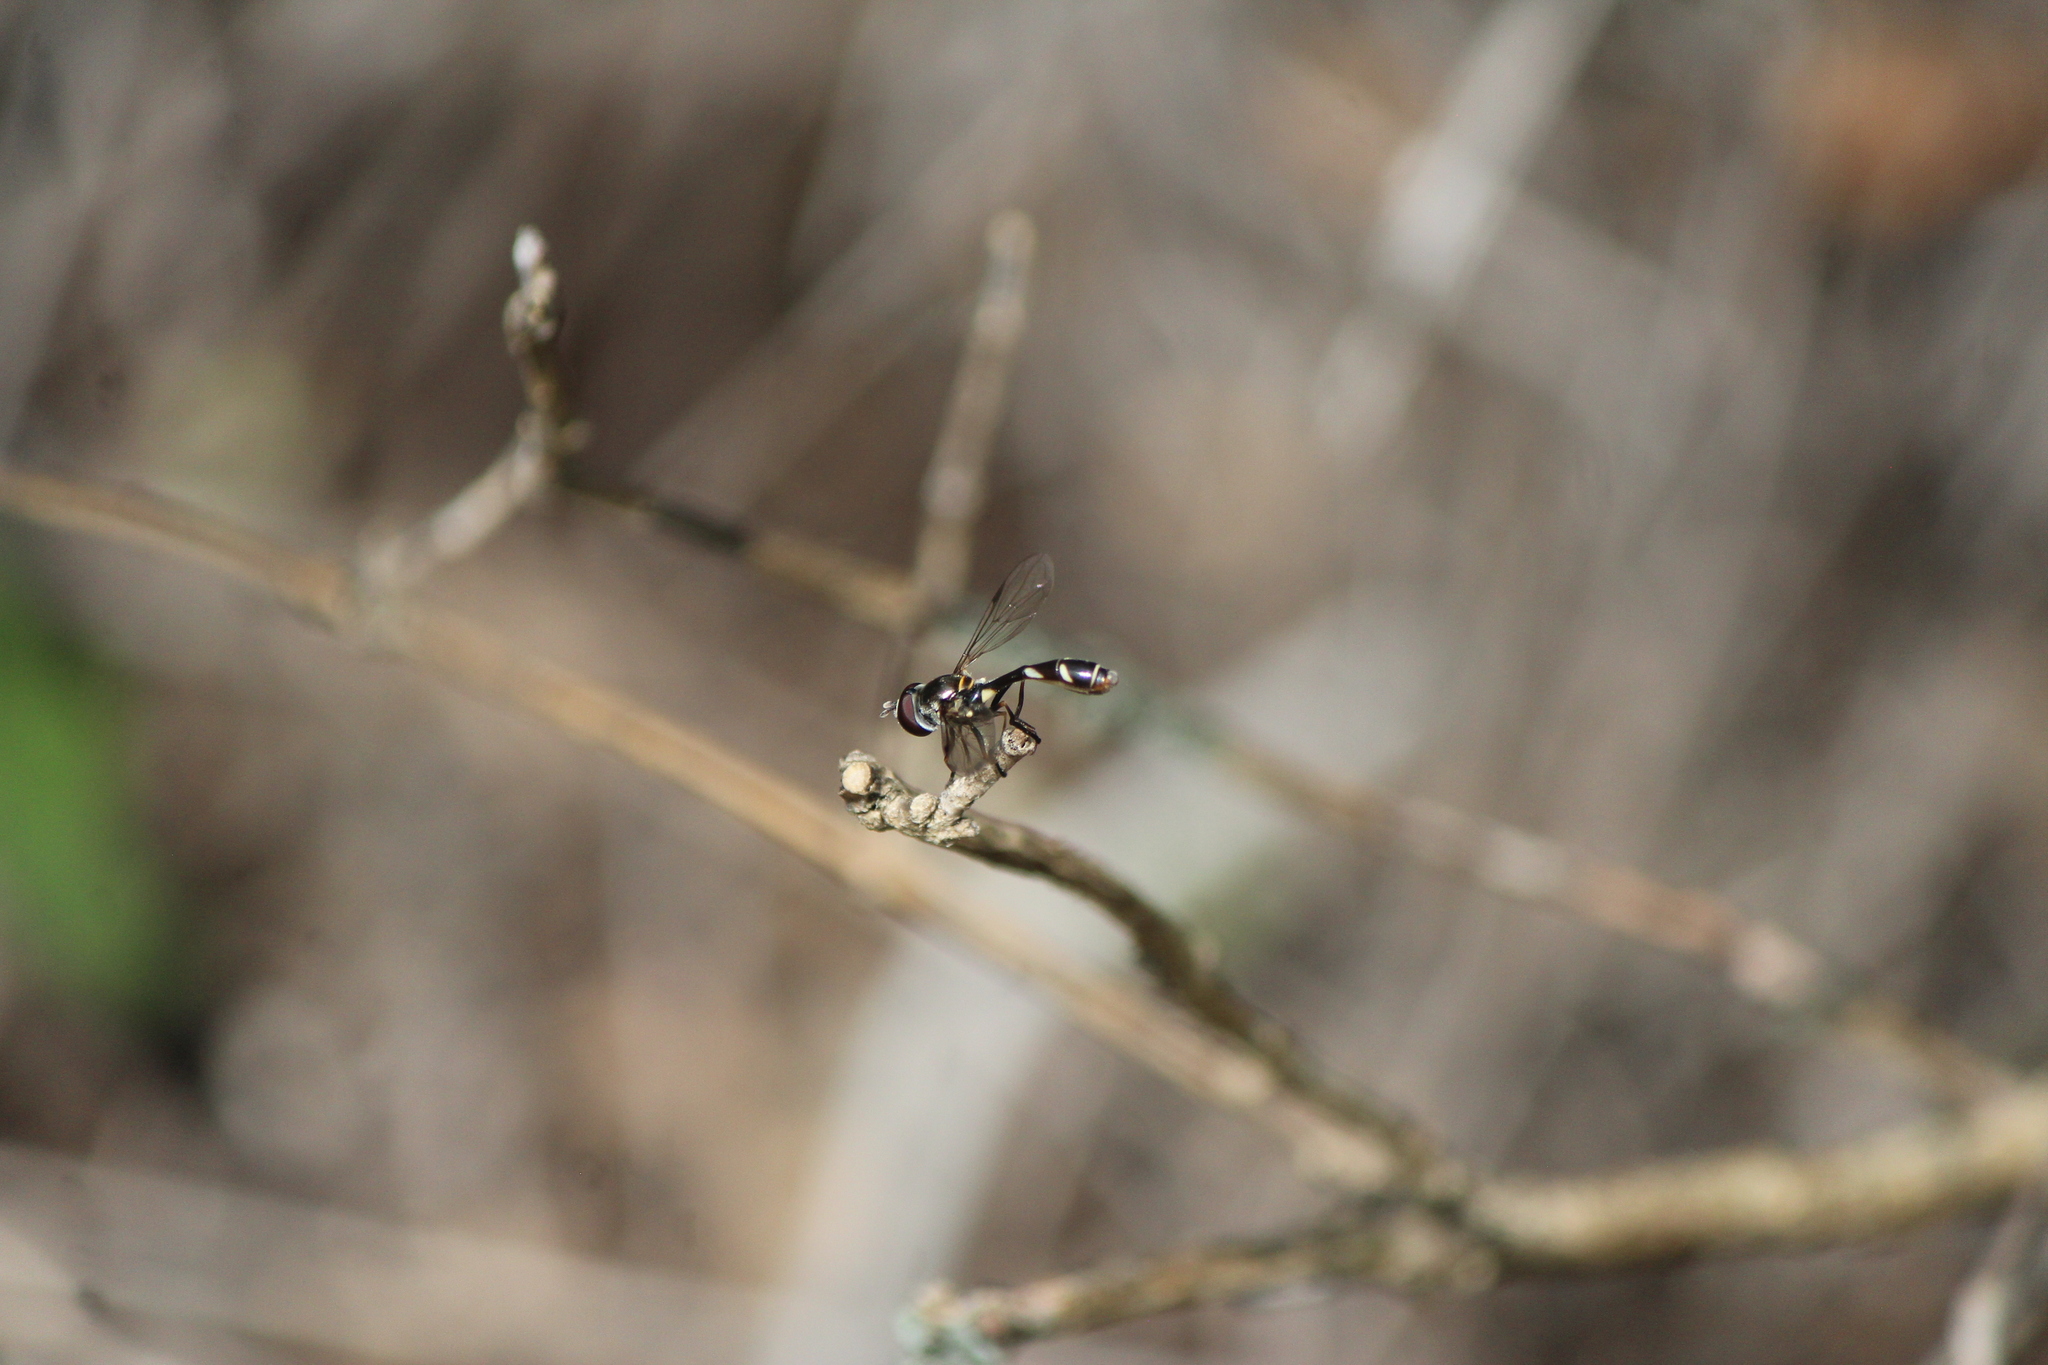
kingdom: Animalia
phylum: Arthropoda
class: Insecta
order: Diptera
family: Syrphidae
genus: Dioprosopa
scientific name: Dioprosopa clavatus
